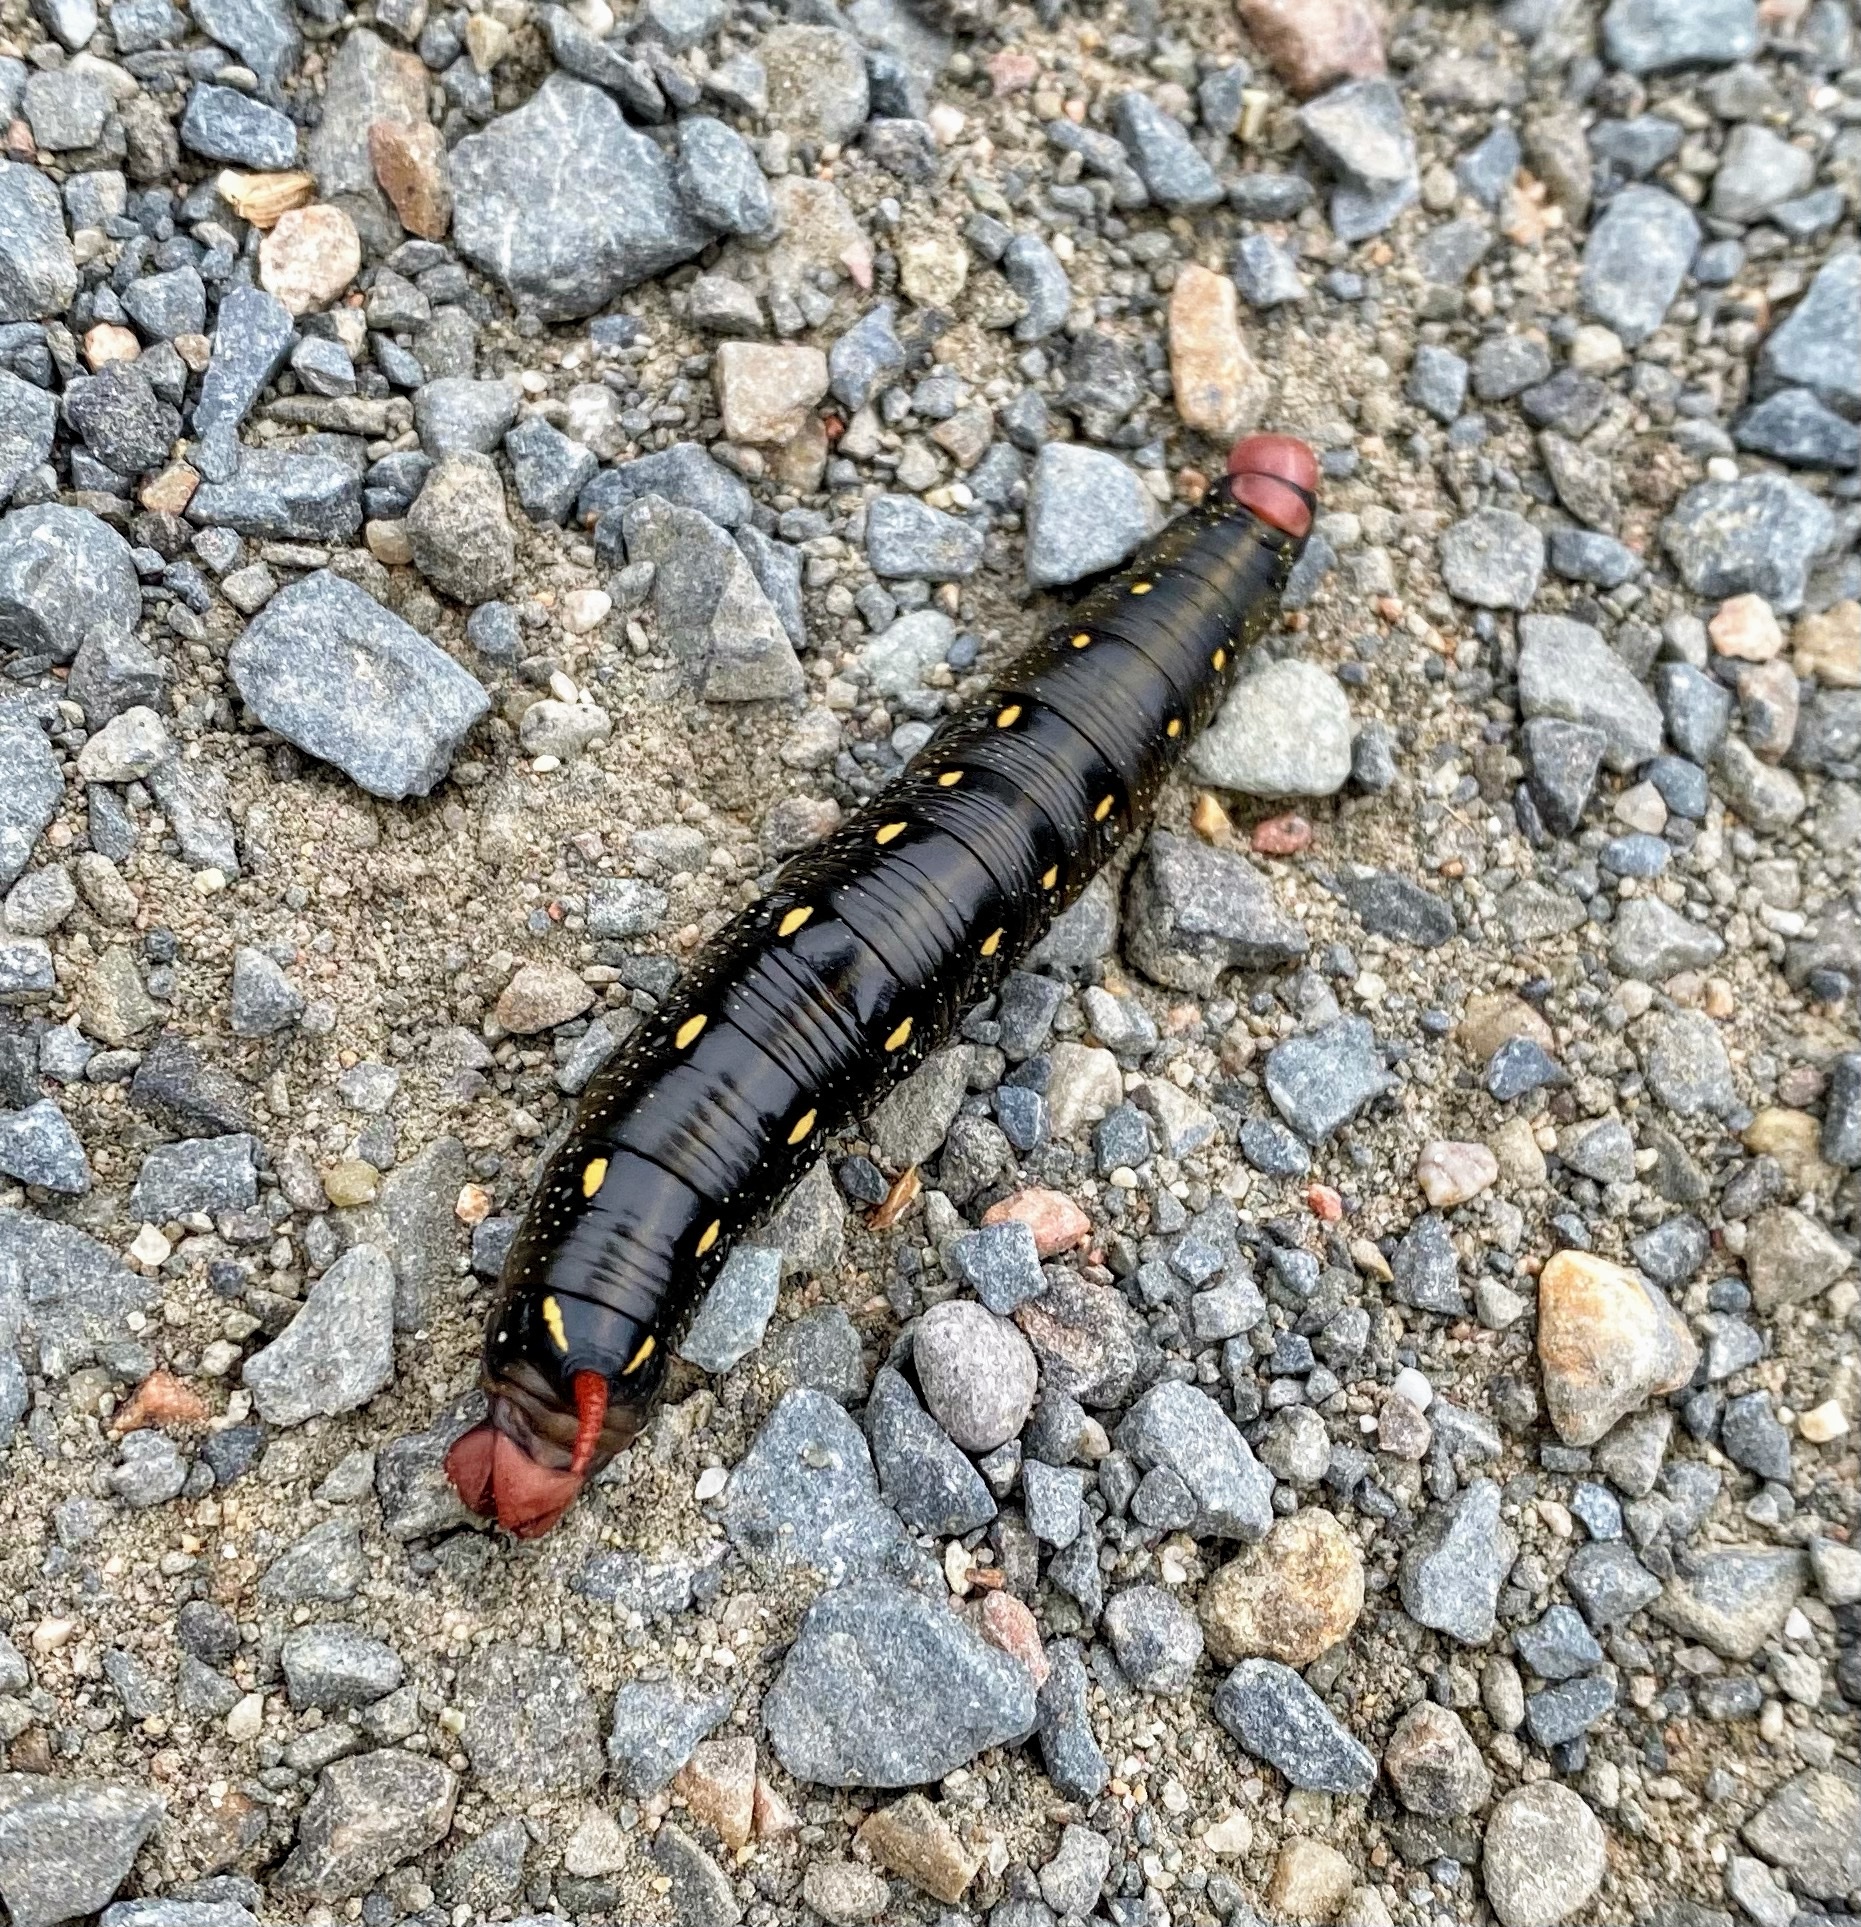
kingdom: Animalia
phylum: Arthropoda
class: Insecta
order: Lepidoptera
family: Sphingidae
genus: Hyles
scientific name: Hyles gallii
